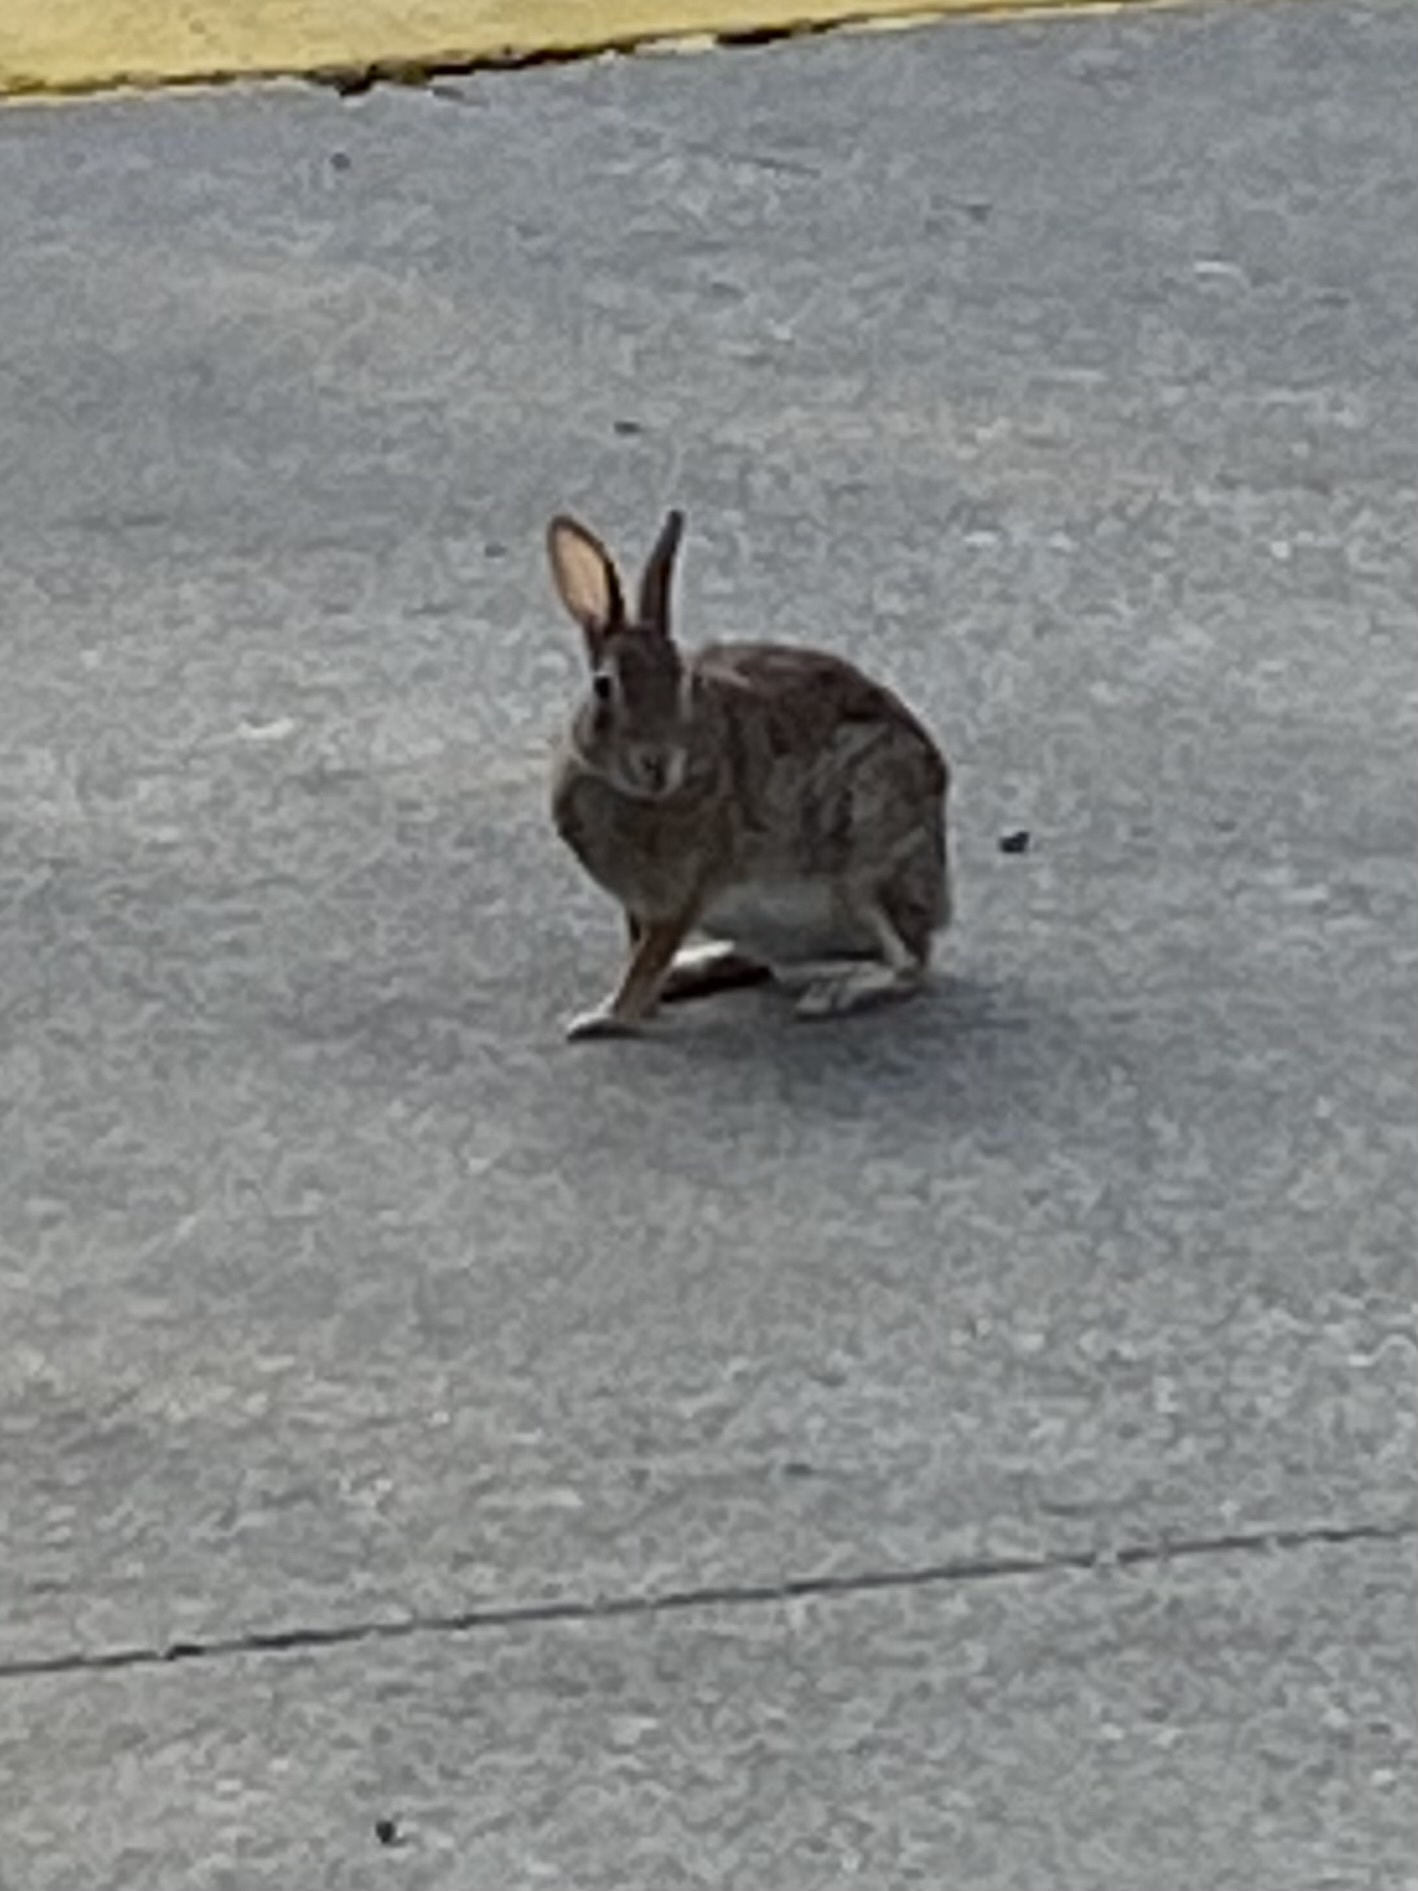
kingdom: Animalia
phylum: Chordata
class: Mammalia
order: Lagomorpha
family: Leporidae
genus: Sylvilagus
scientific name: Sylvilagus floridanus
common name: Eastern cottontail
